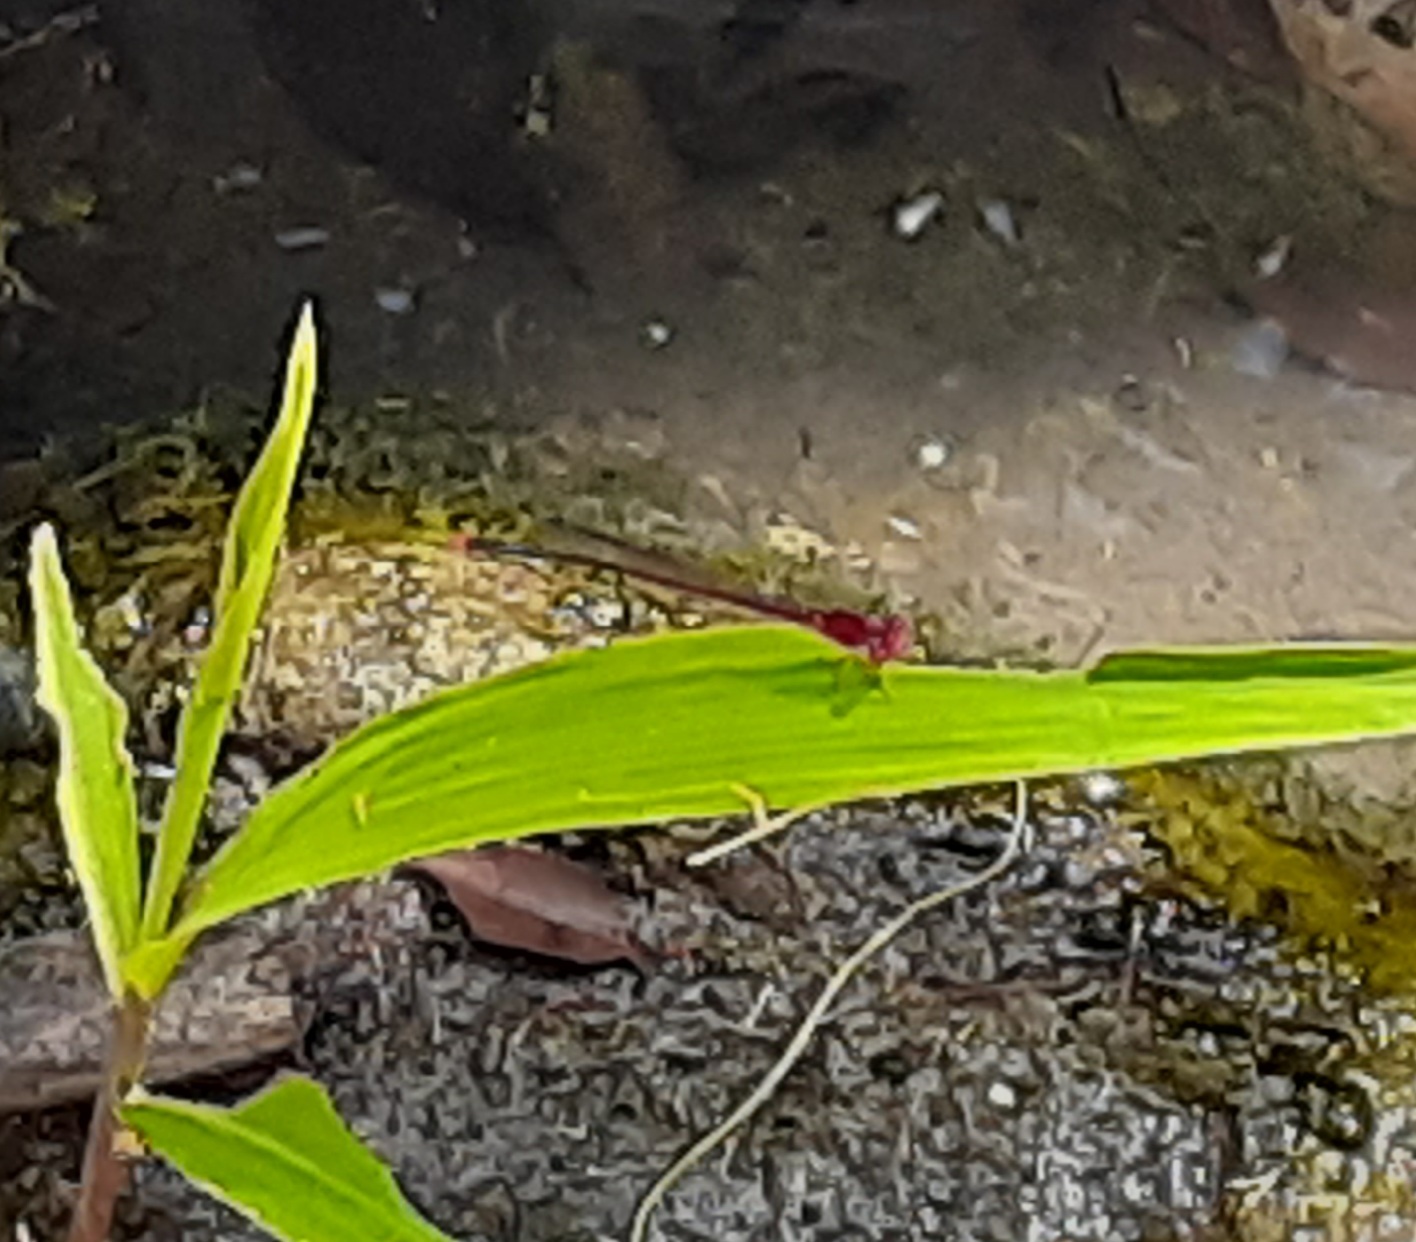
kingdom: Animalia
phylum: Arthropoda
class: Insecta
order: Odonata
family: Coenagrionidae
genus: Pseudagrion
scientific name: Pseudagrion pilidorsum
